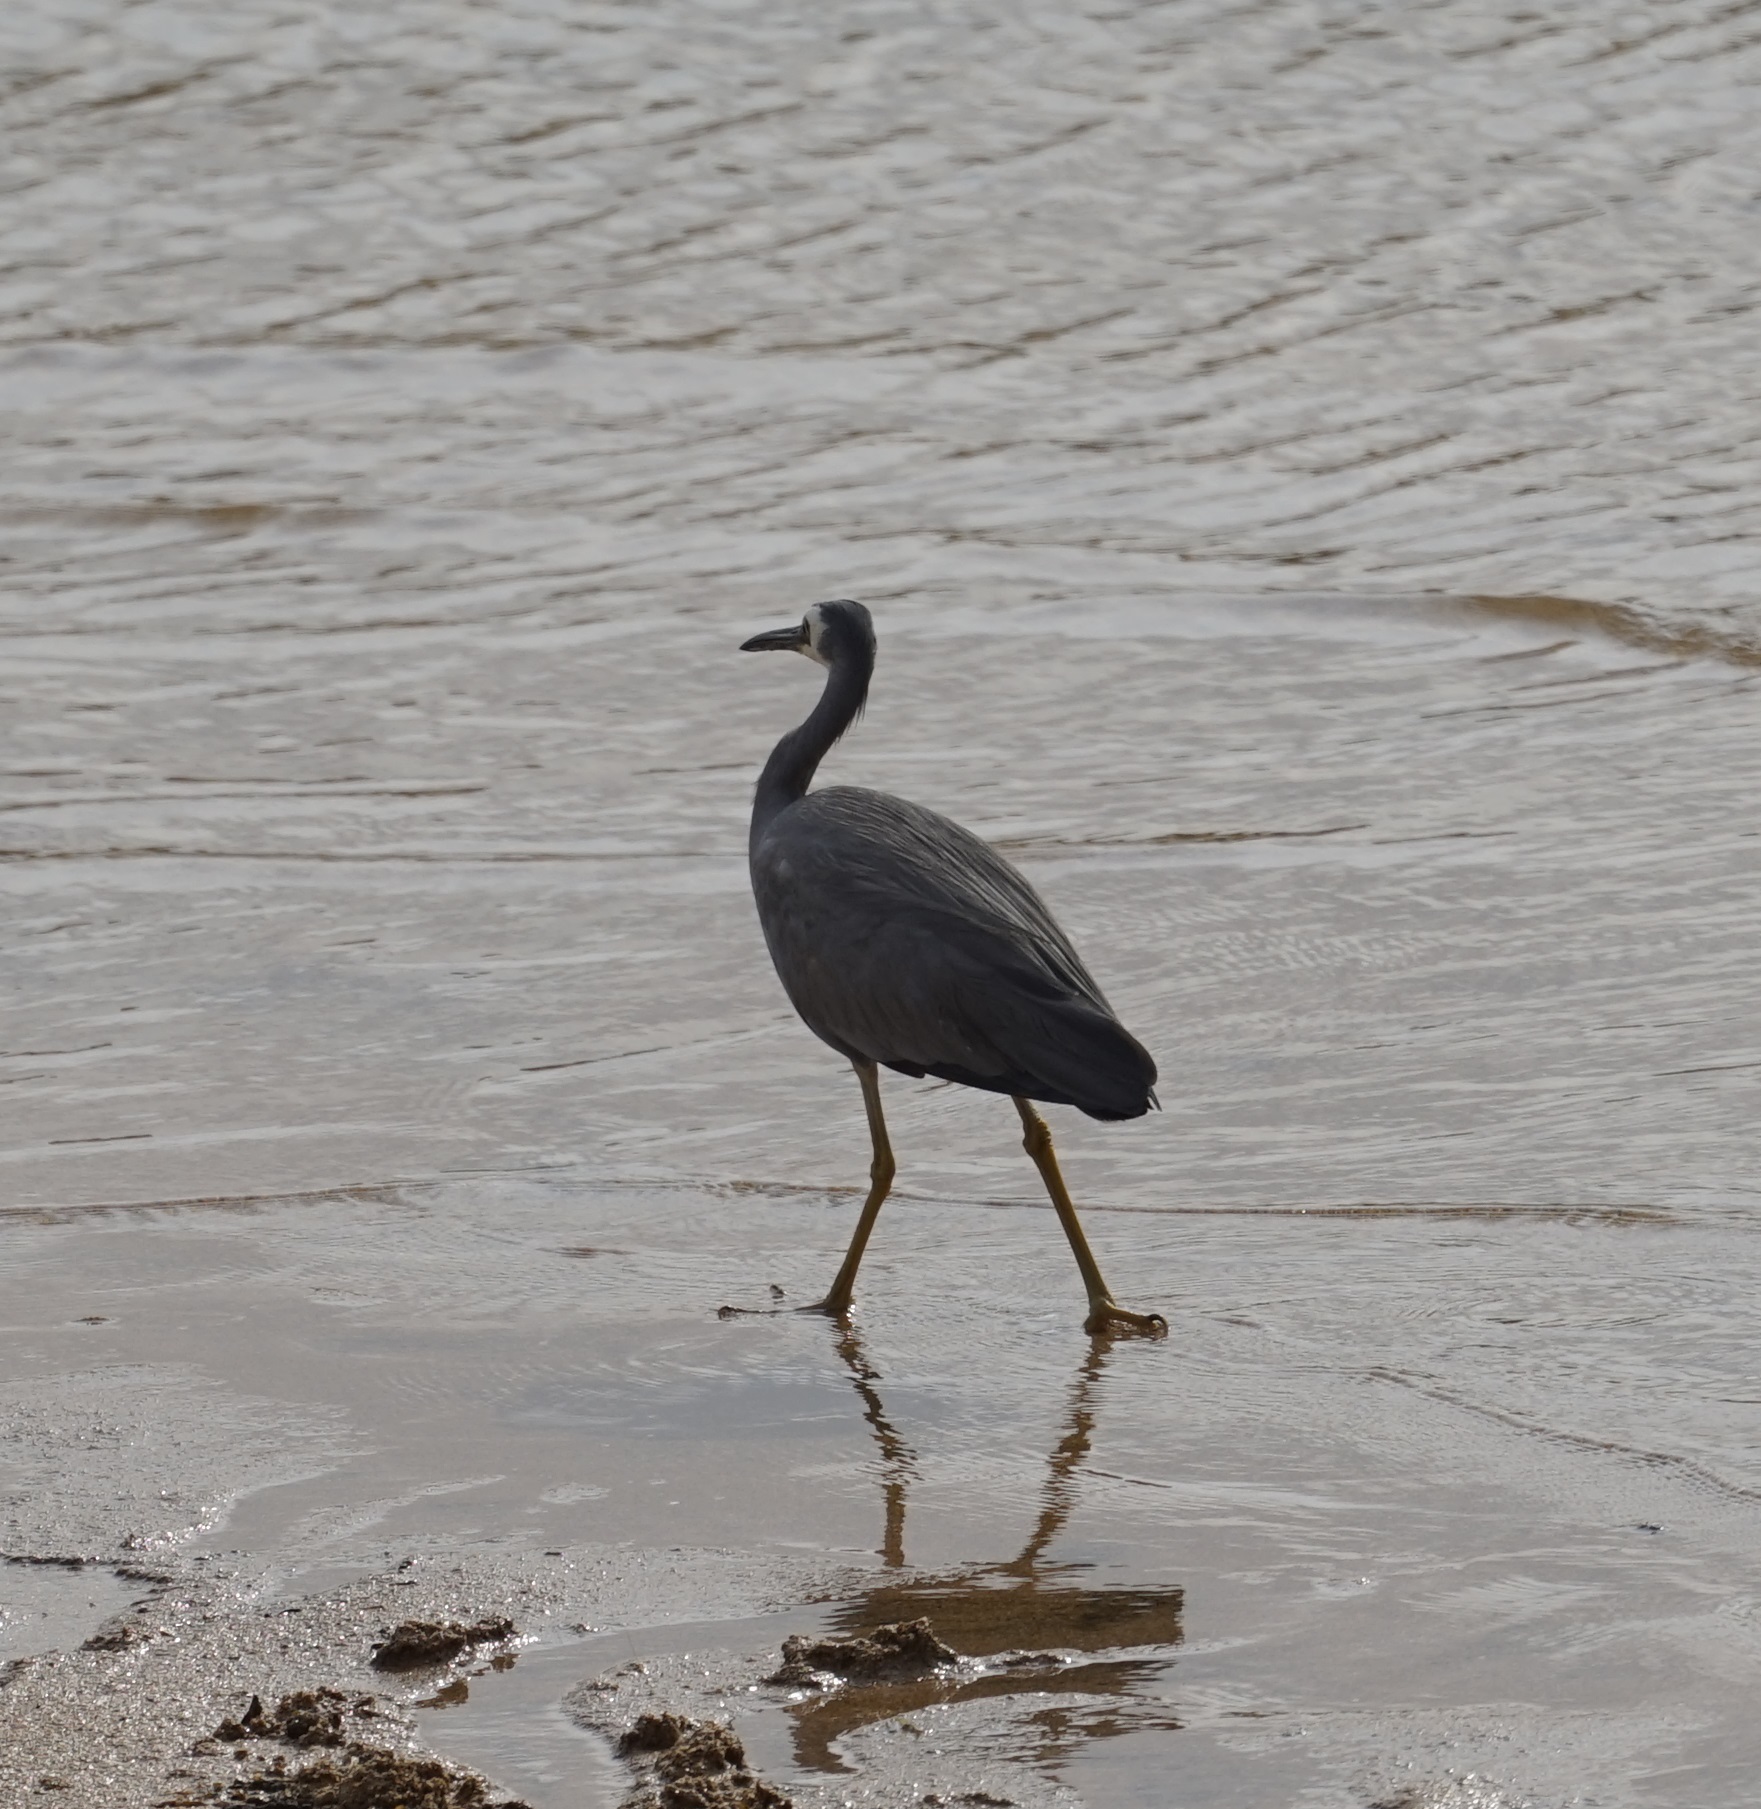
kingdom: Animalia
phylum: Chordata
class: Aves
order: Pelecaniformes
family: Ardeidae
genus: Egretta
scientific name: Egretta novaehollandiae
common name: White-faced heron
